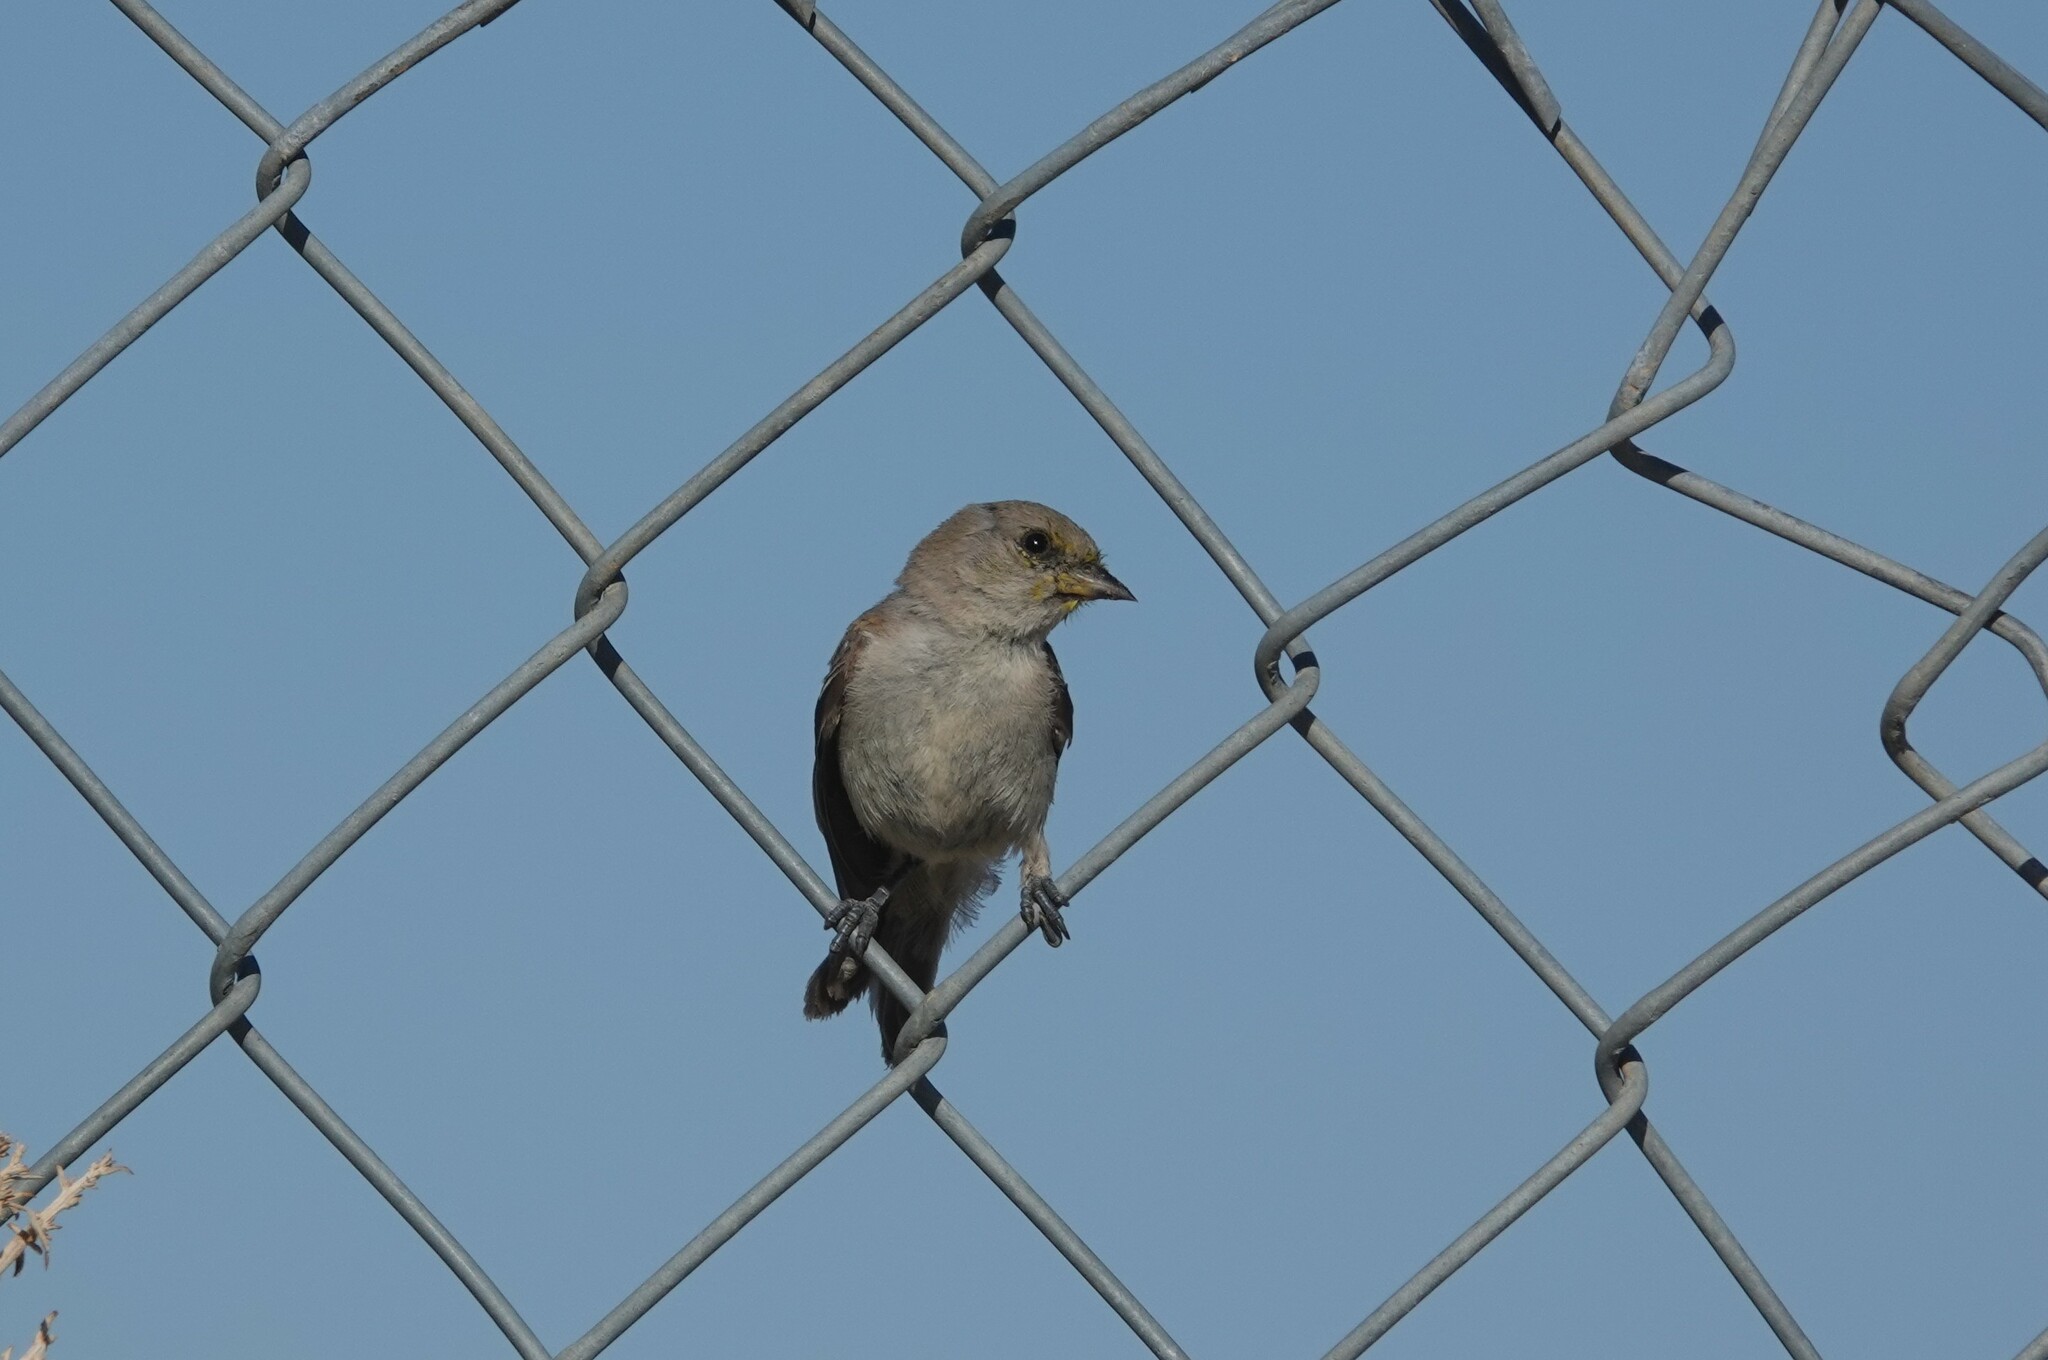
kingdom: Animalia
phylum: Chordata
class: Aves
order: Passeriformes
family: Remizidae
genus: Auriparus
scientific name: Auriparus flaviceps
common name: Verdin
